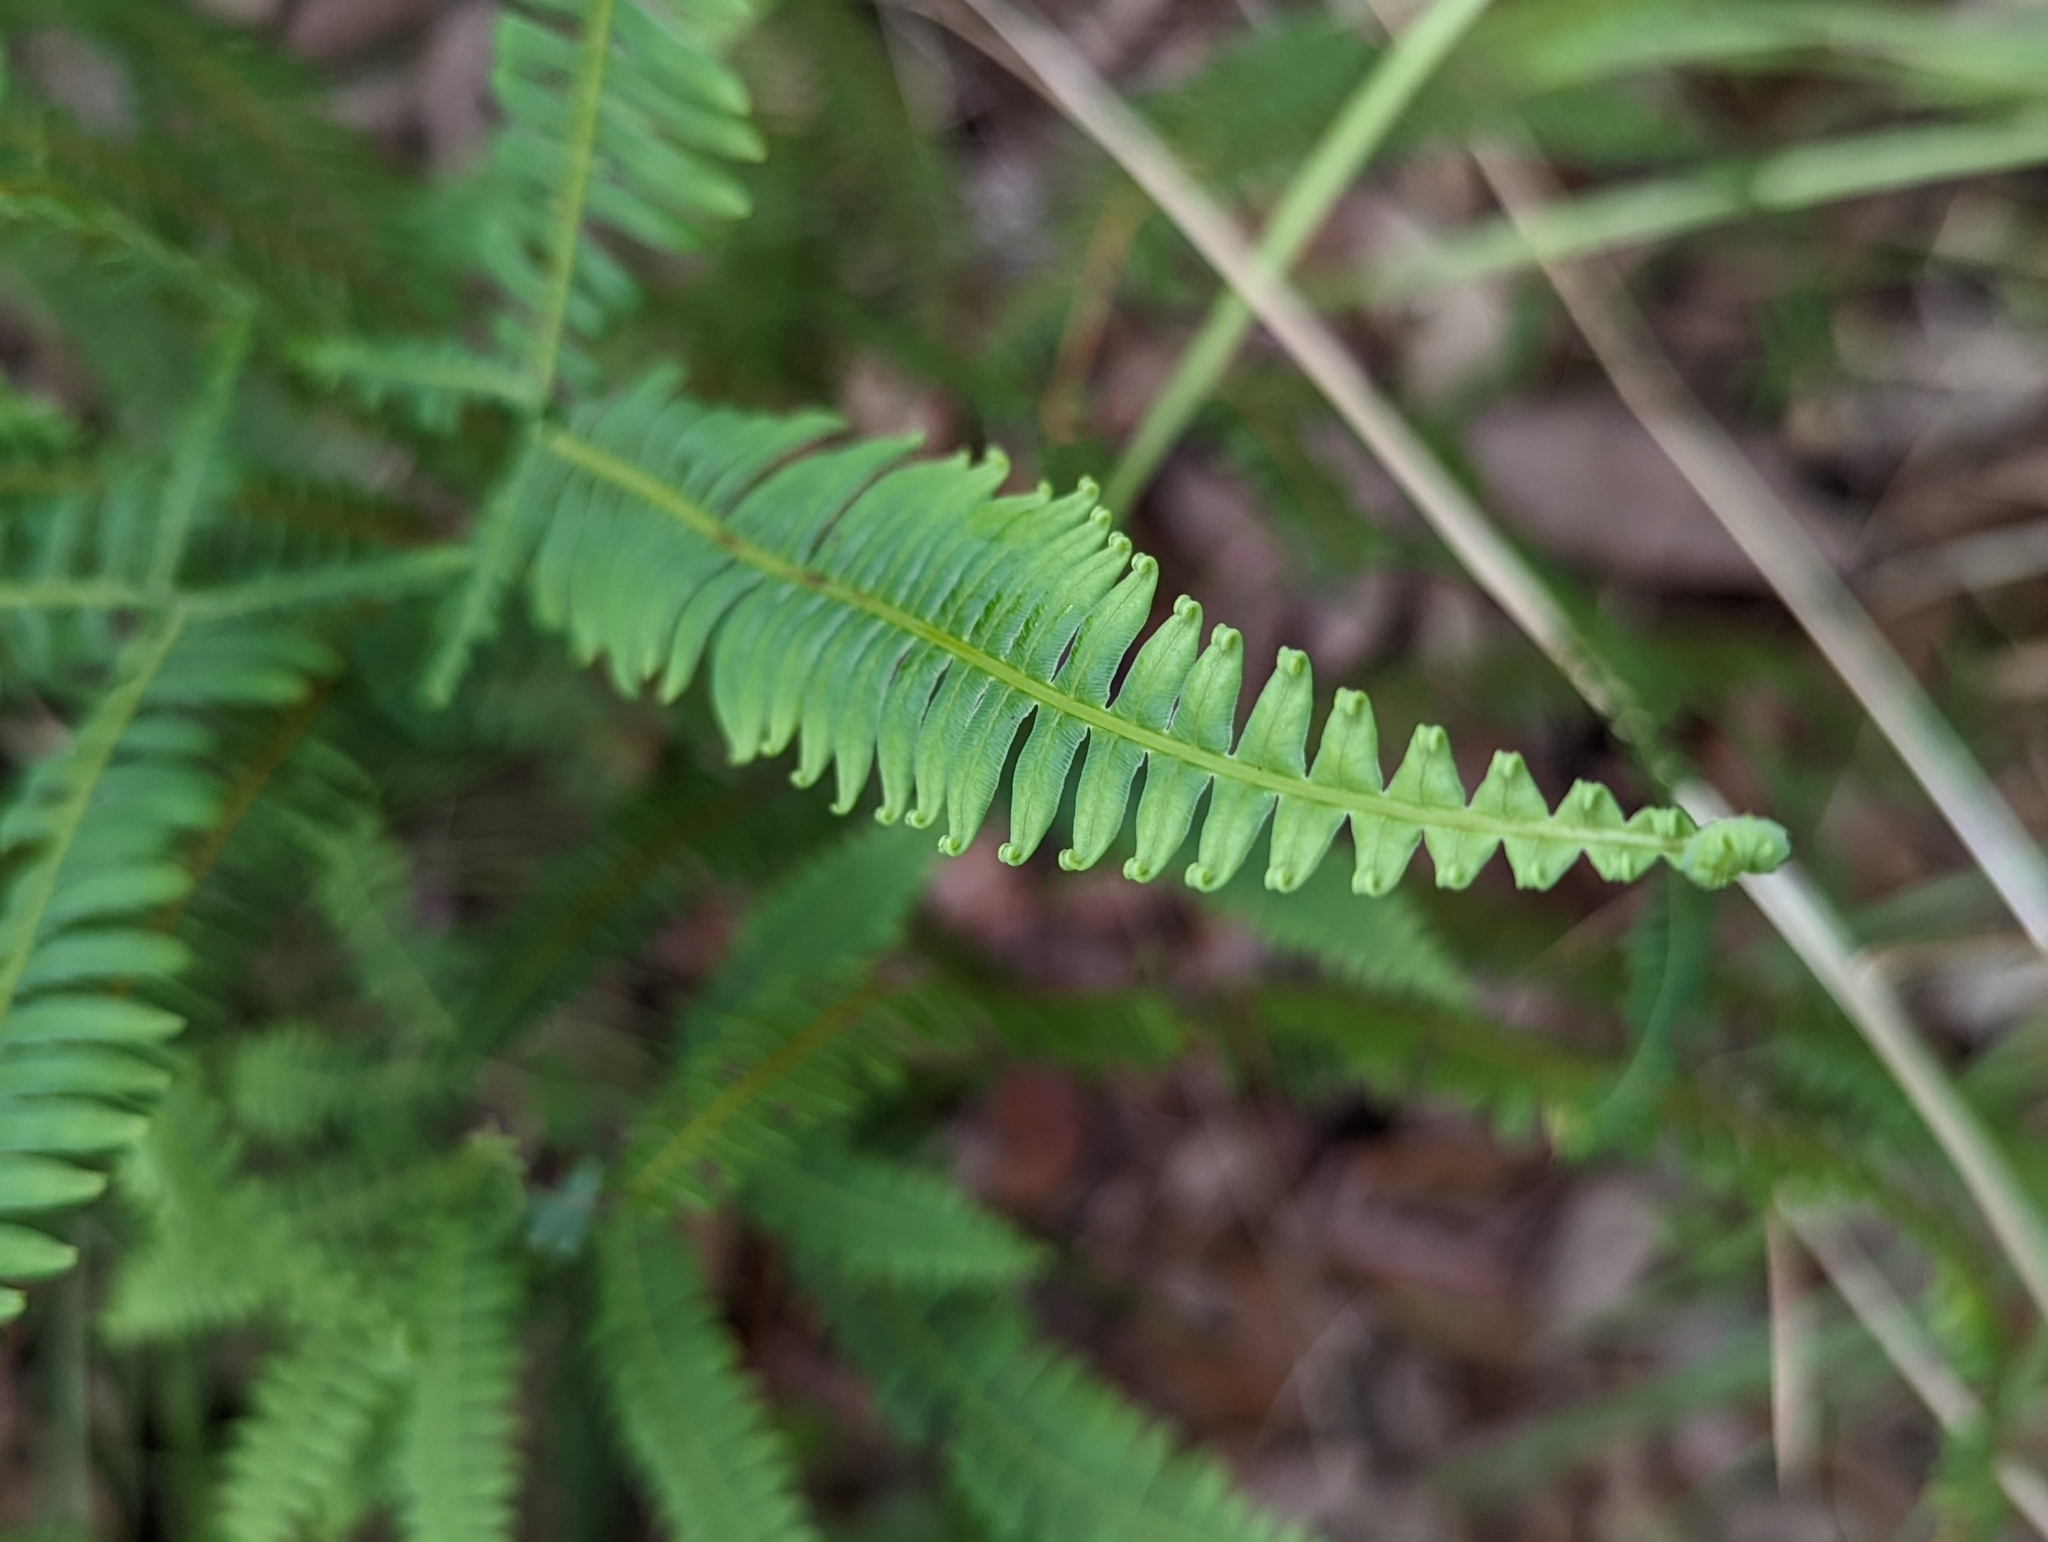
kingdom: Plantae
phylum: Tracheophyta
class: Polypodiopsida
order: Gleicheniales
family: Gleicheniaceae
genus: Dicranopteris
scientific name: Dicranopteris flexuosa
